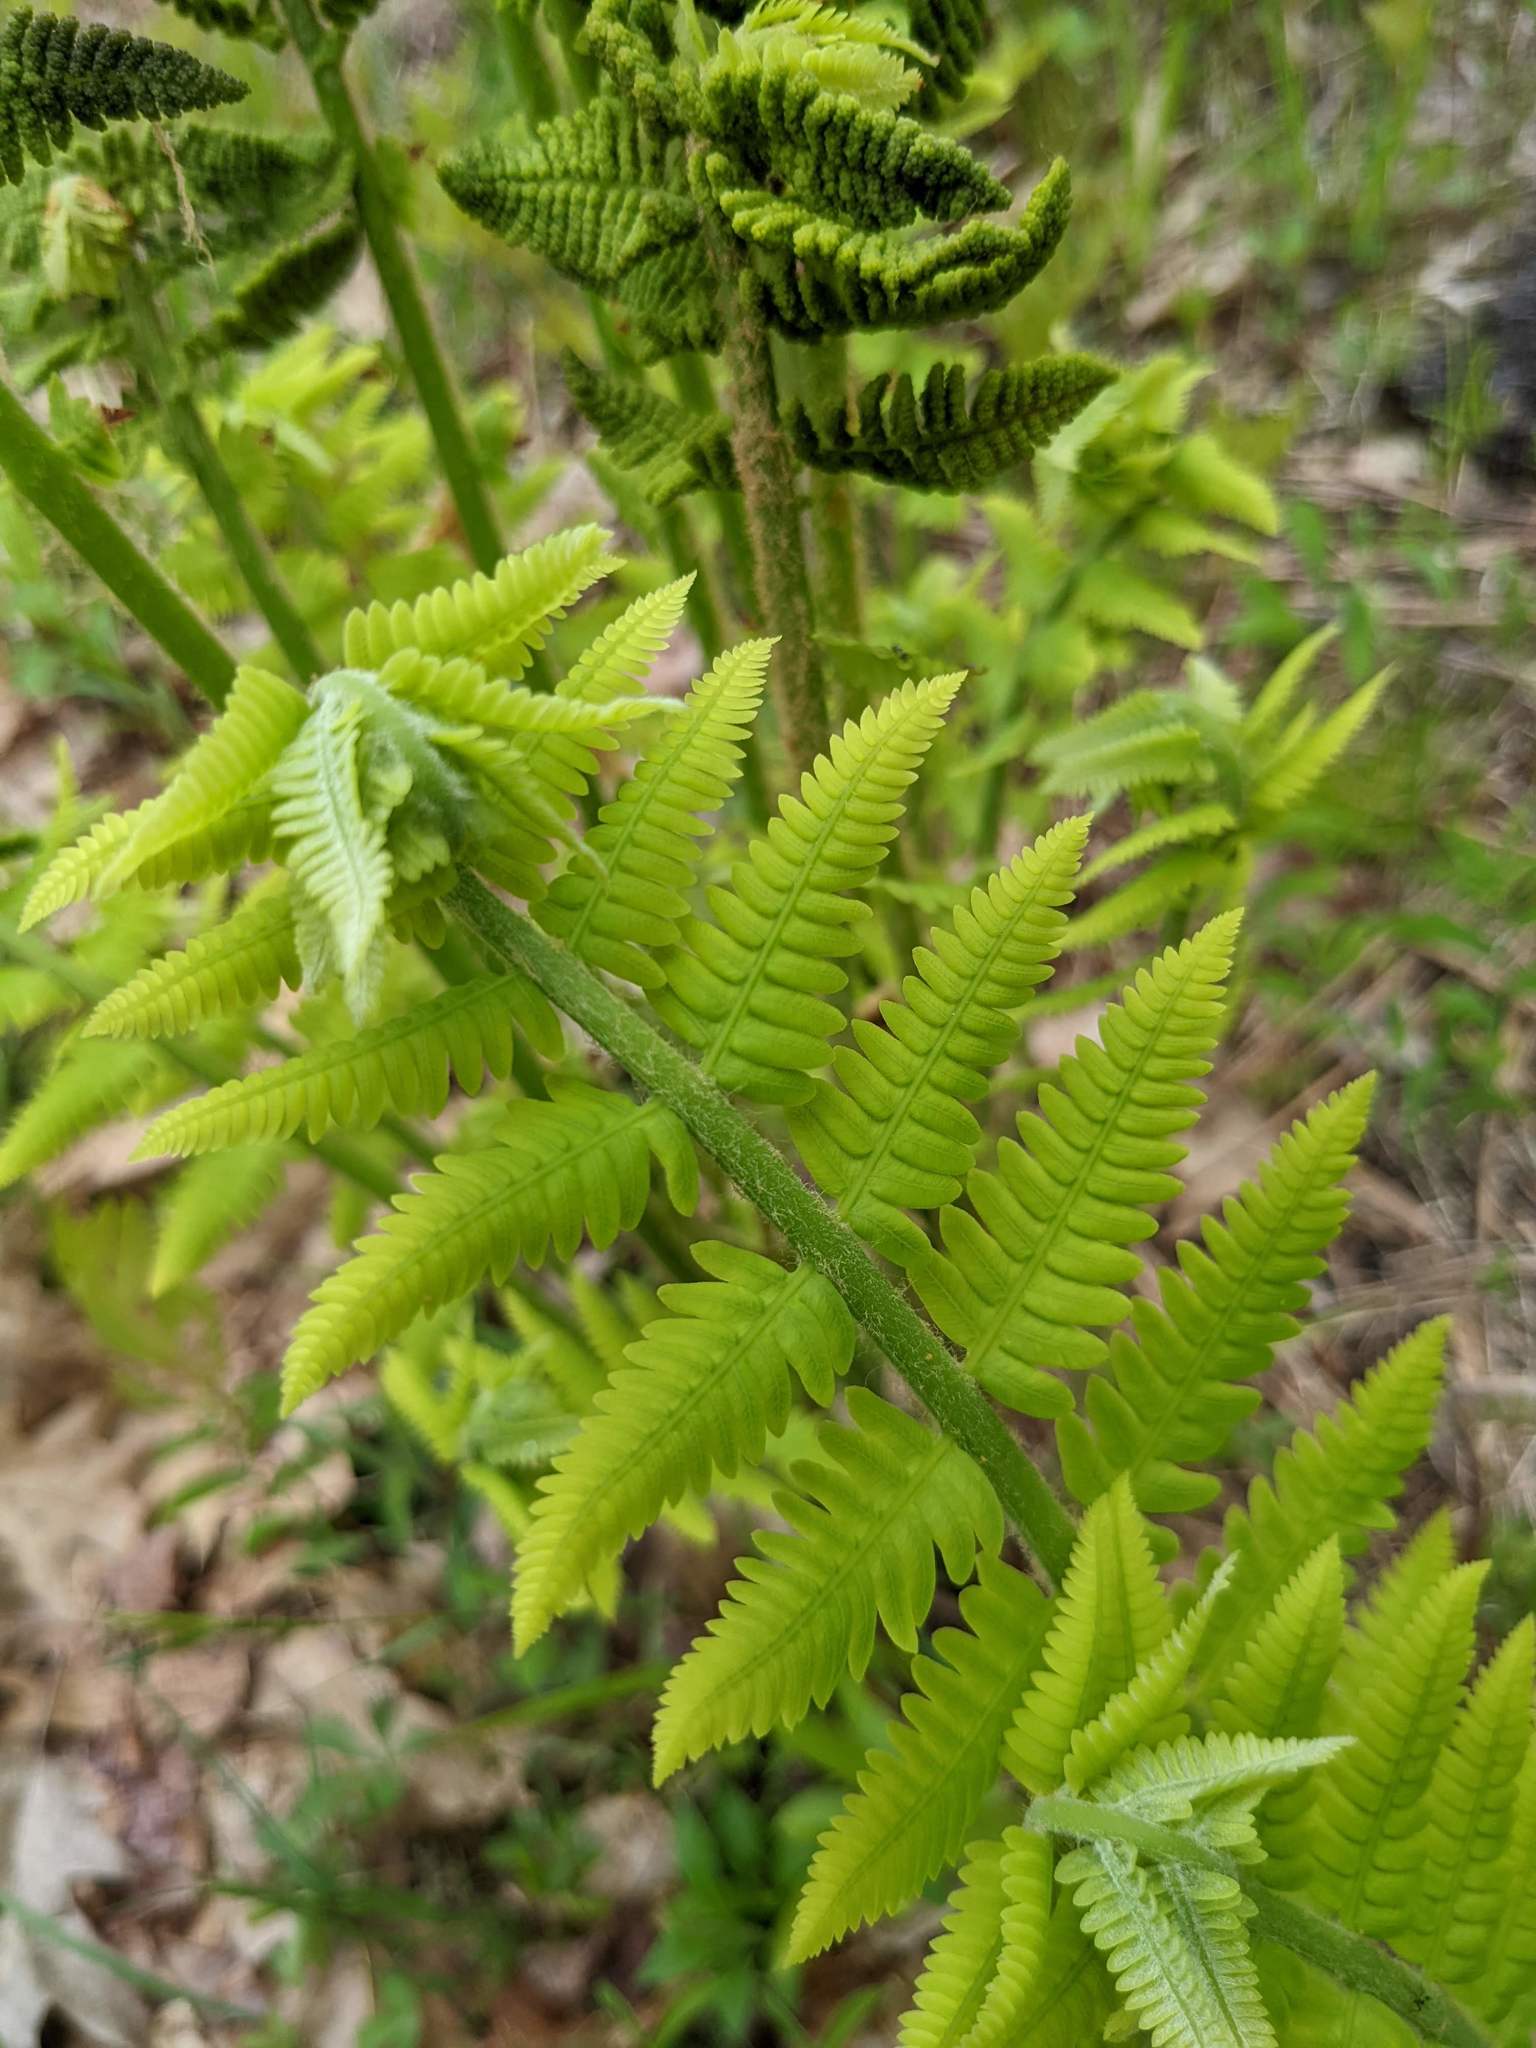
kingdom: Plantae
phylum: Tracheophyta
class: Polypodiopsida
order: Osmundales
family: Osmundaceae
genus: Claytosmunda
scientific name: Claytosmunda claytoniana
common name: Clayton's fern
